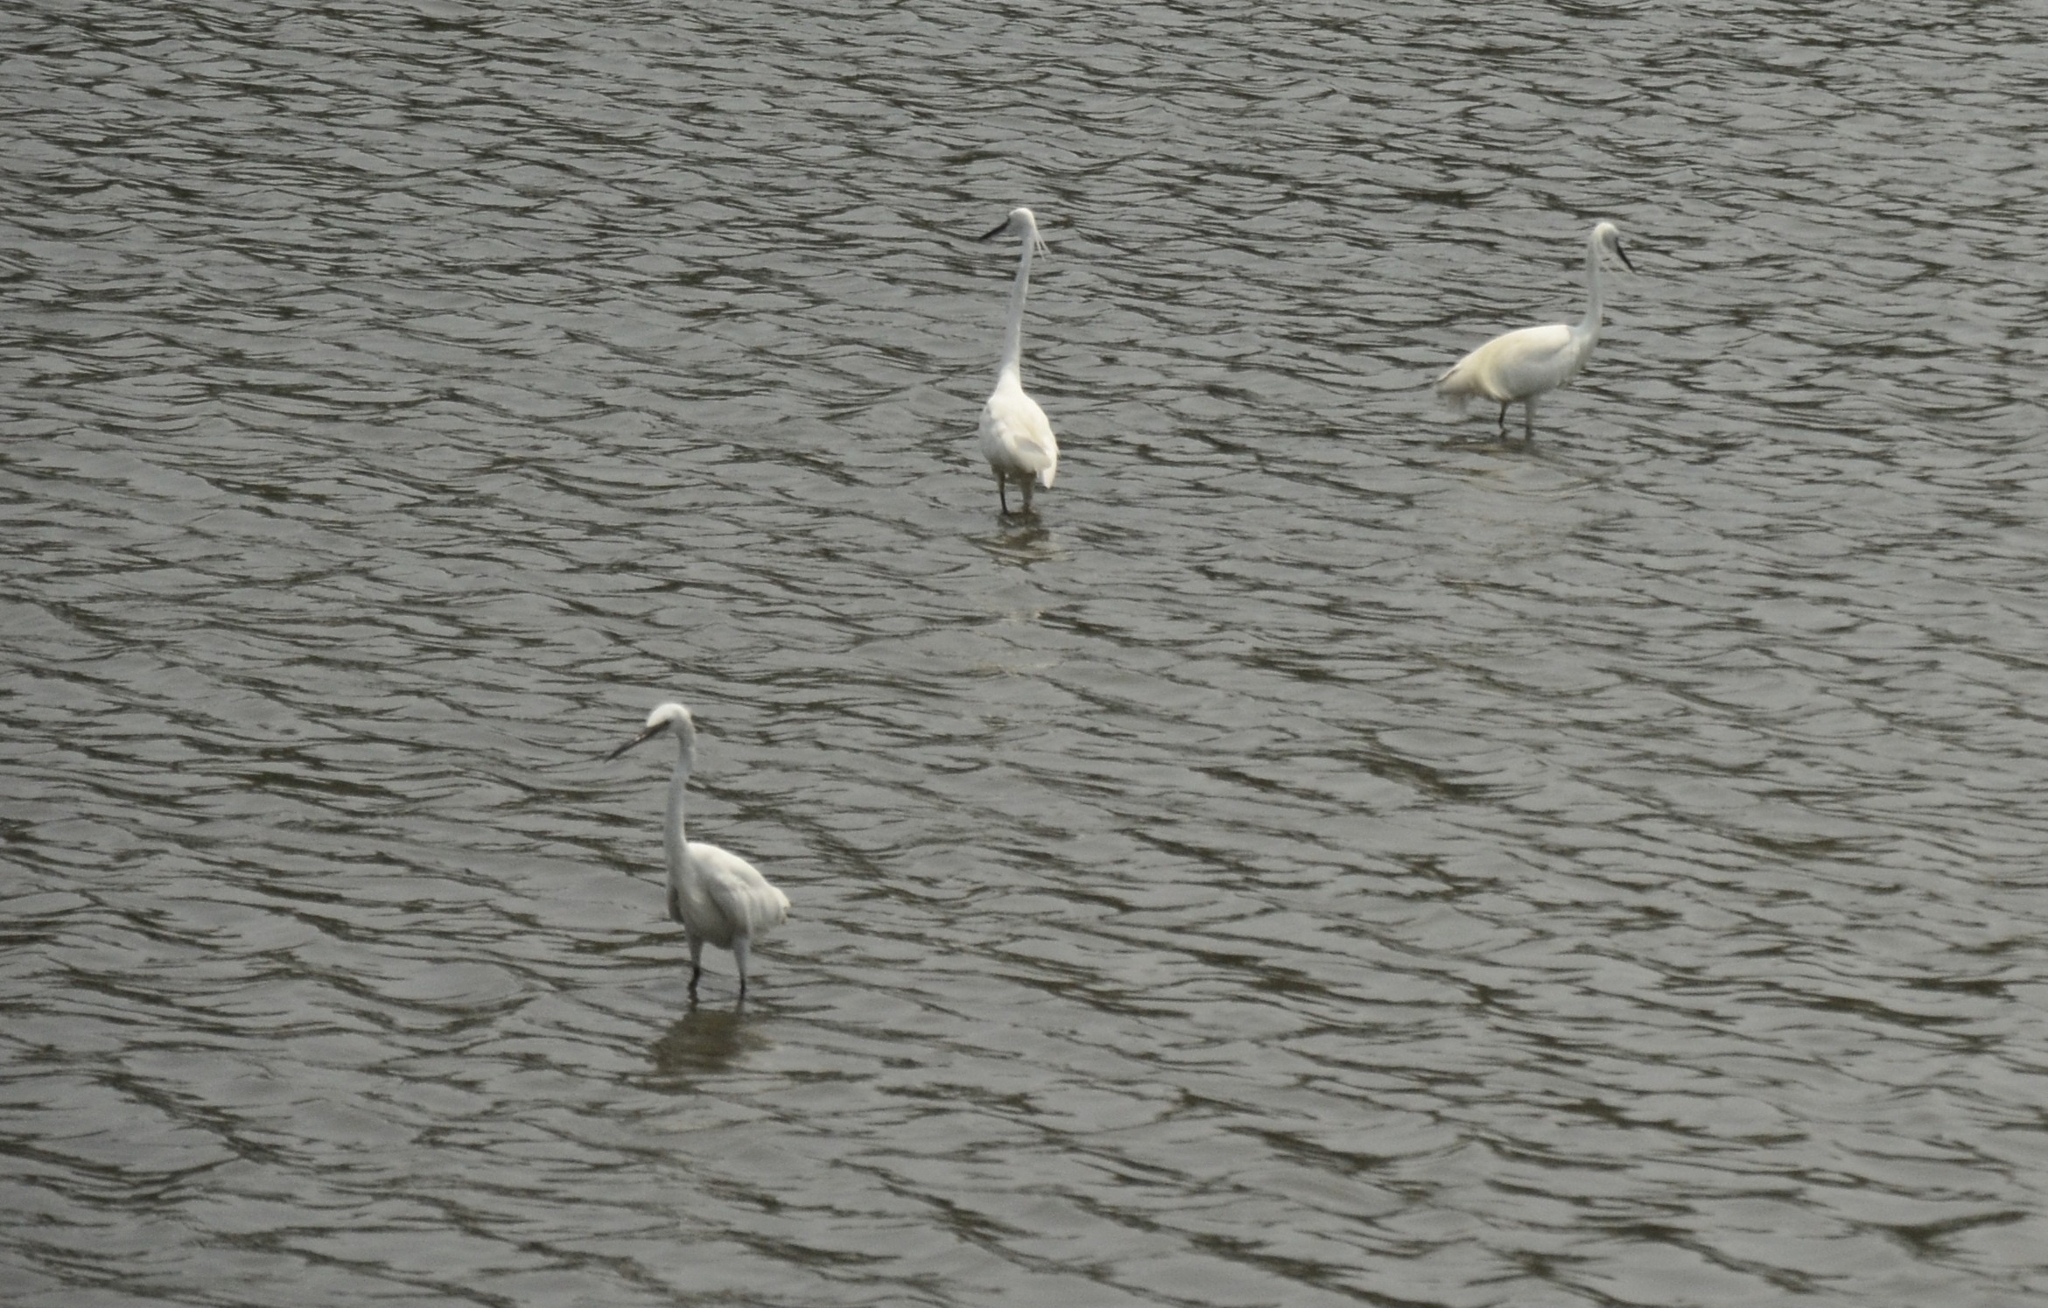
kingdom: Animalia
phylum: Chordata
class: Aves
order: Pelecaniformes
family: Ardeidae
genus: Egretta
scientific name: Egretta garzetta
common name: Little egret
